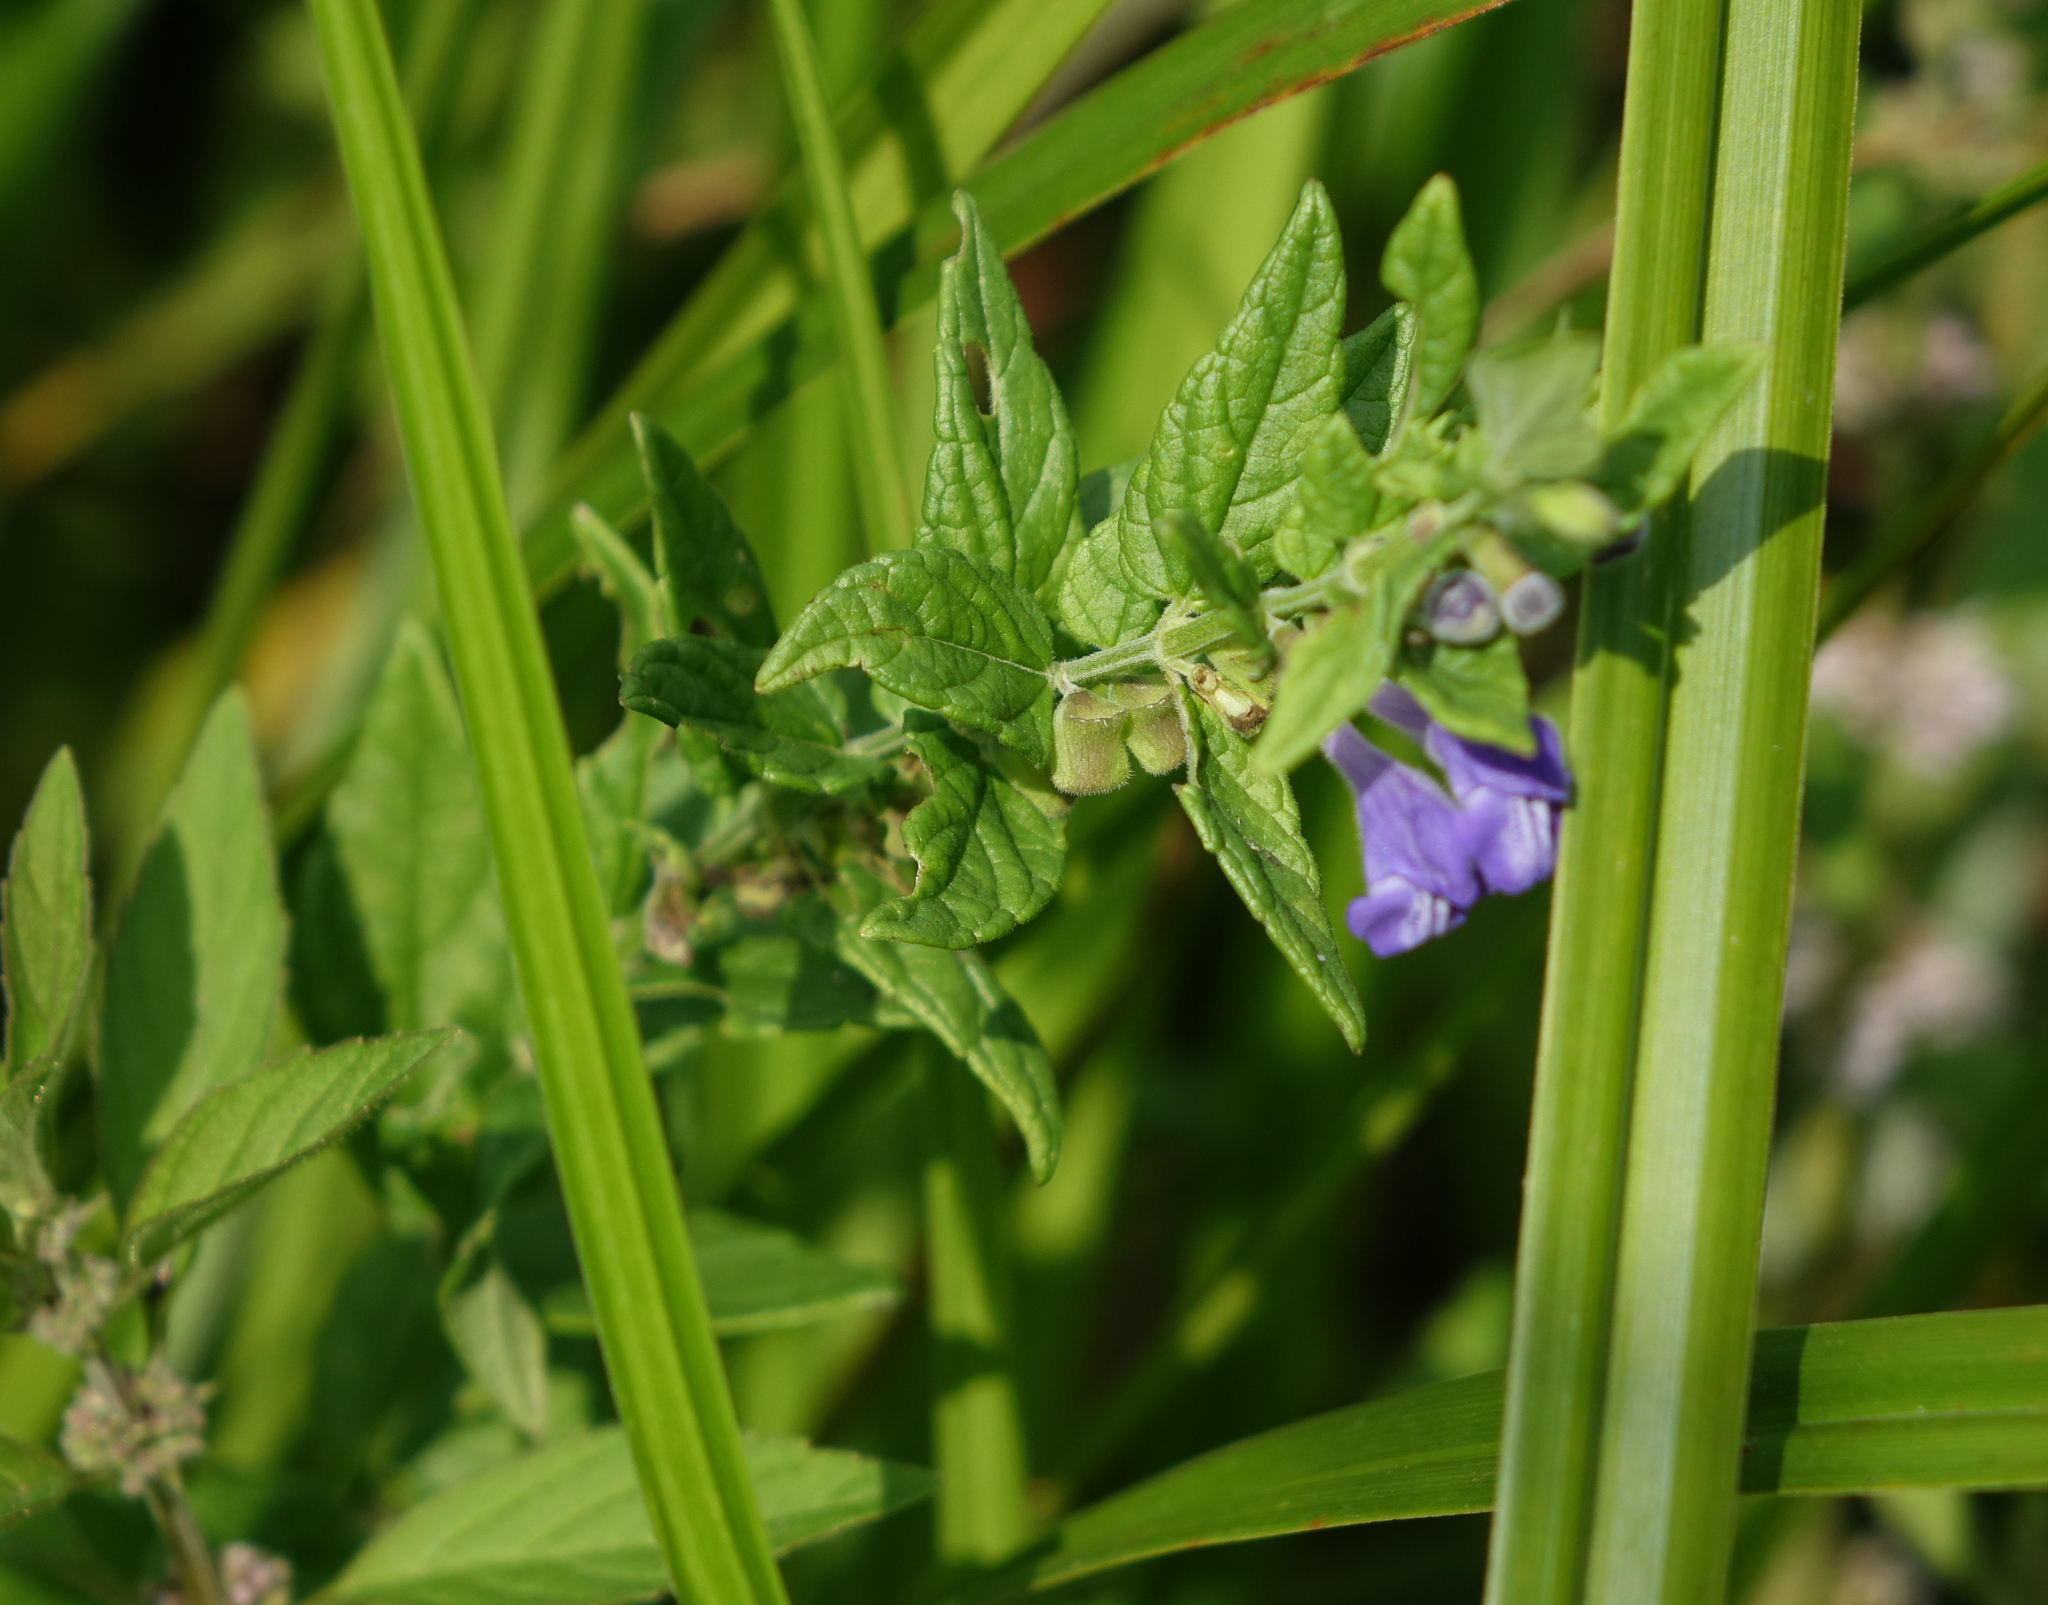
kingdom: Plantae
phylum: Tracheophyta
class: Magnoliopsida
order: Lamiales
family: Lamiaceae
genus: Scutellaria
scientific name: Scutellaria galericulata
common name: Skullcap
